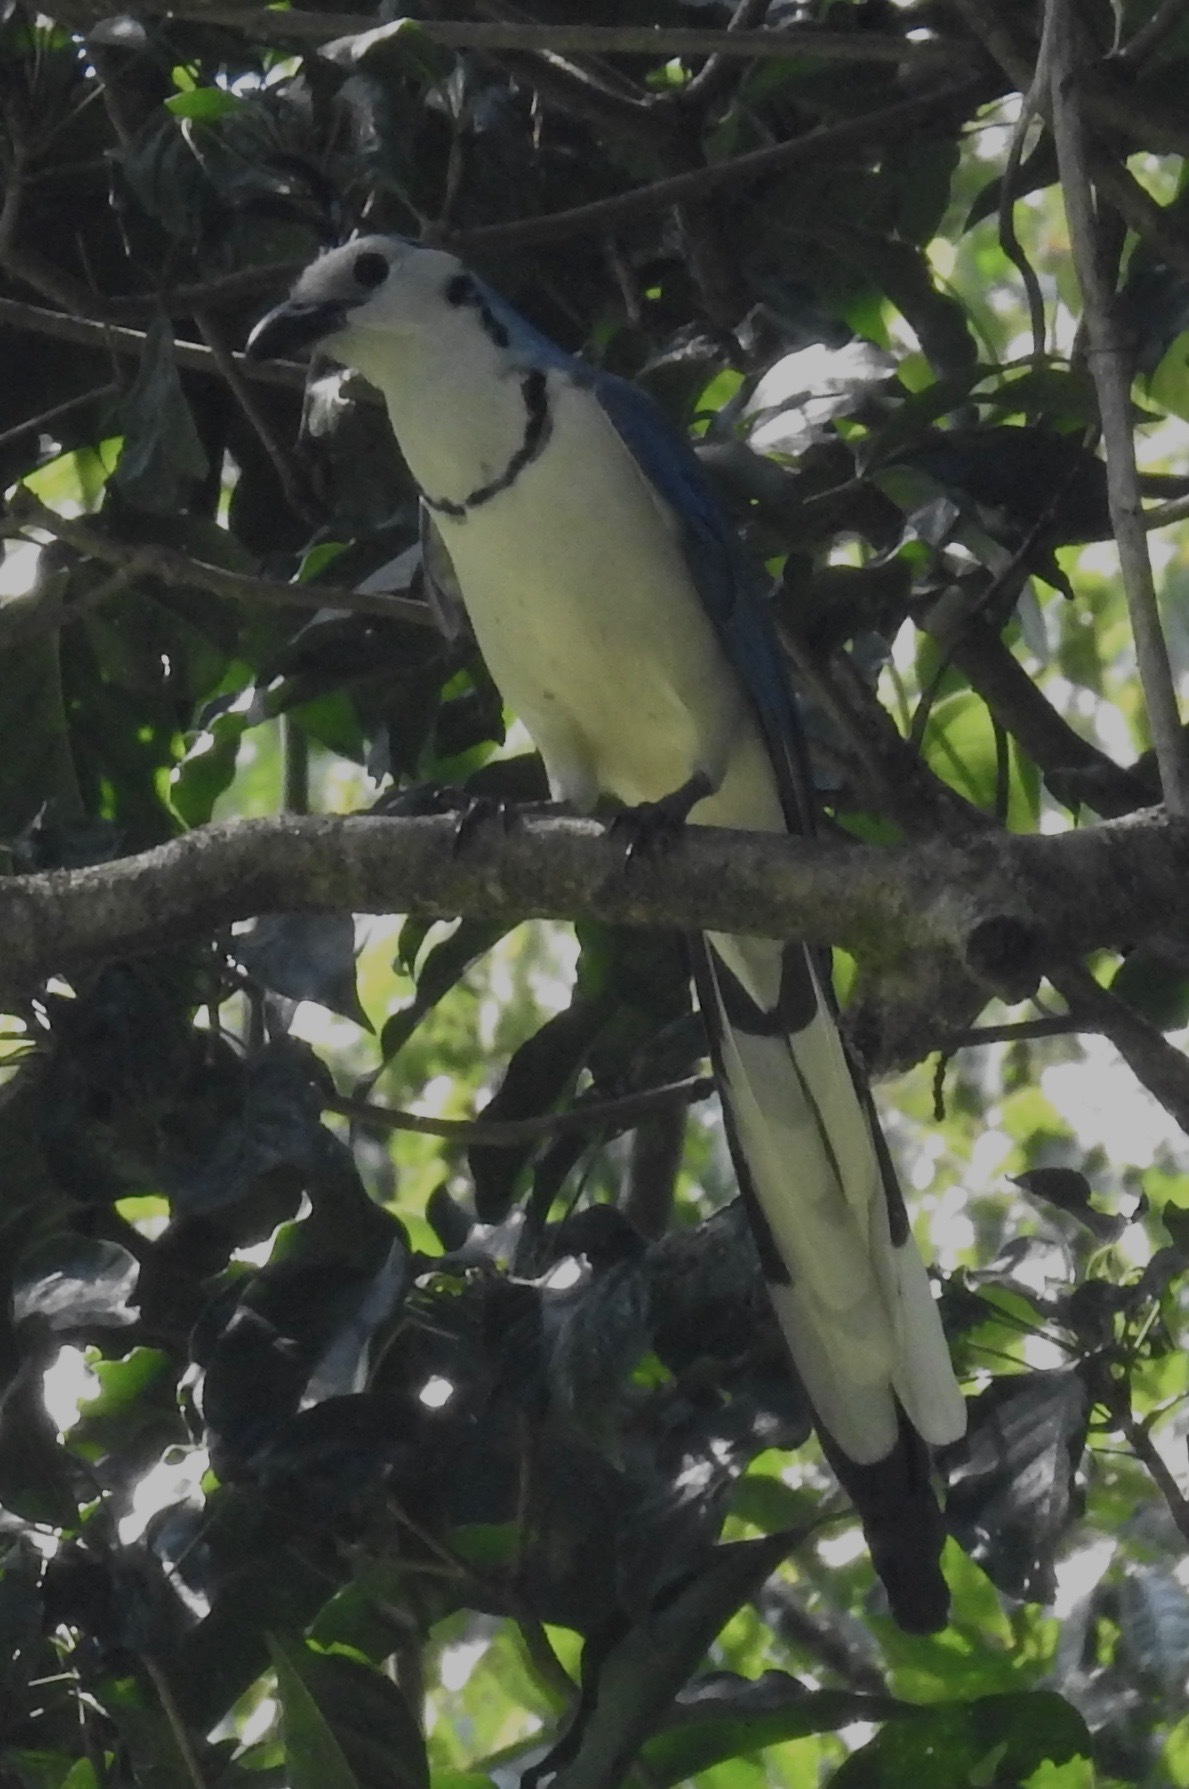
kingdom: Animalia
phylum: Chordata
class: Aves
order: Passeriformes
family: Corvidae
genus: Calocitta
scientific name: Calocitta formosa
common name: White-throated magpie-jay
